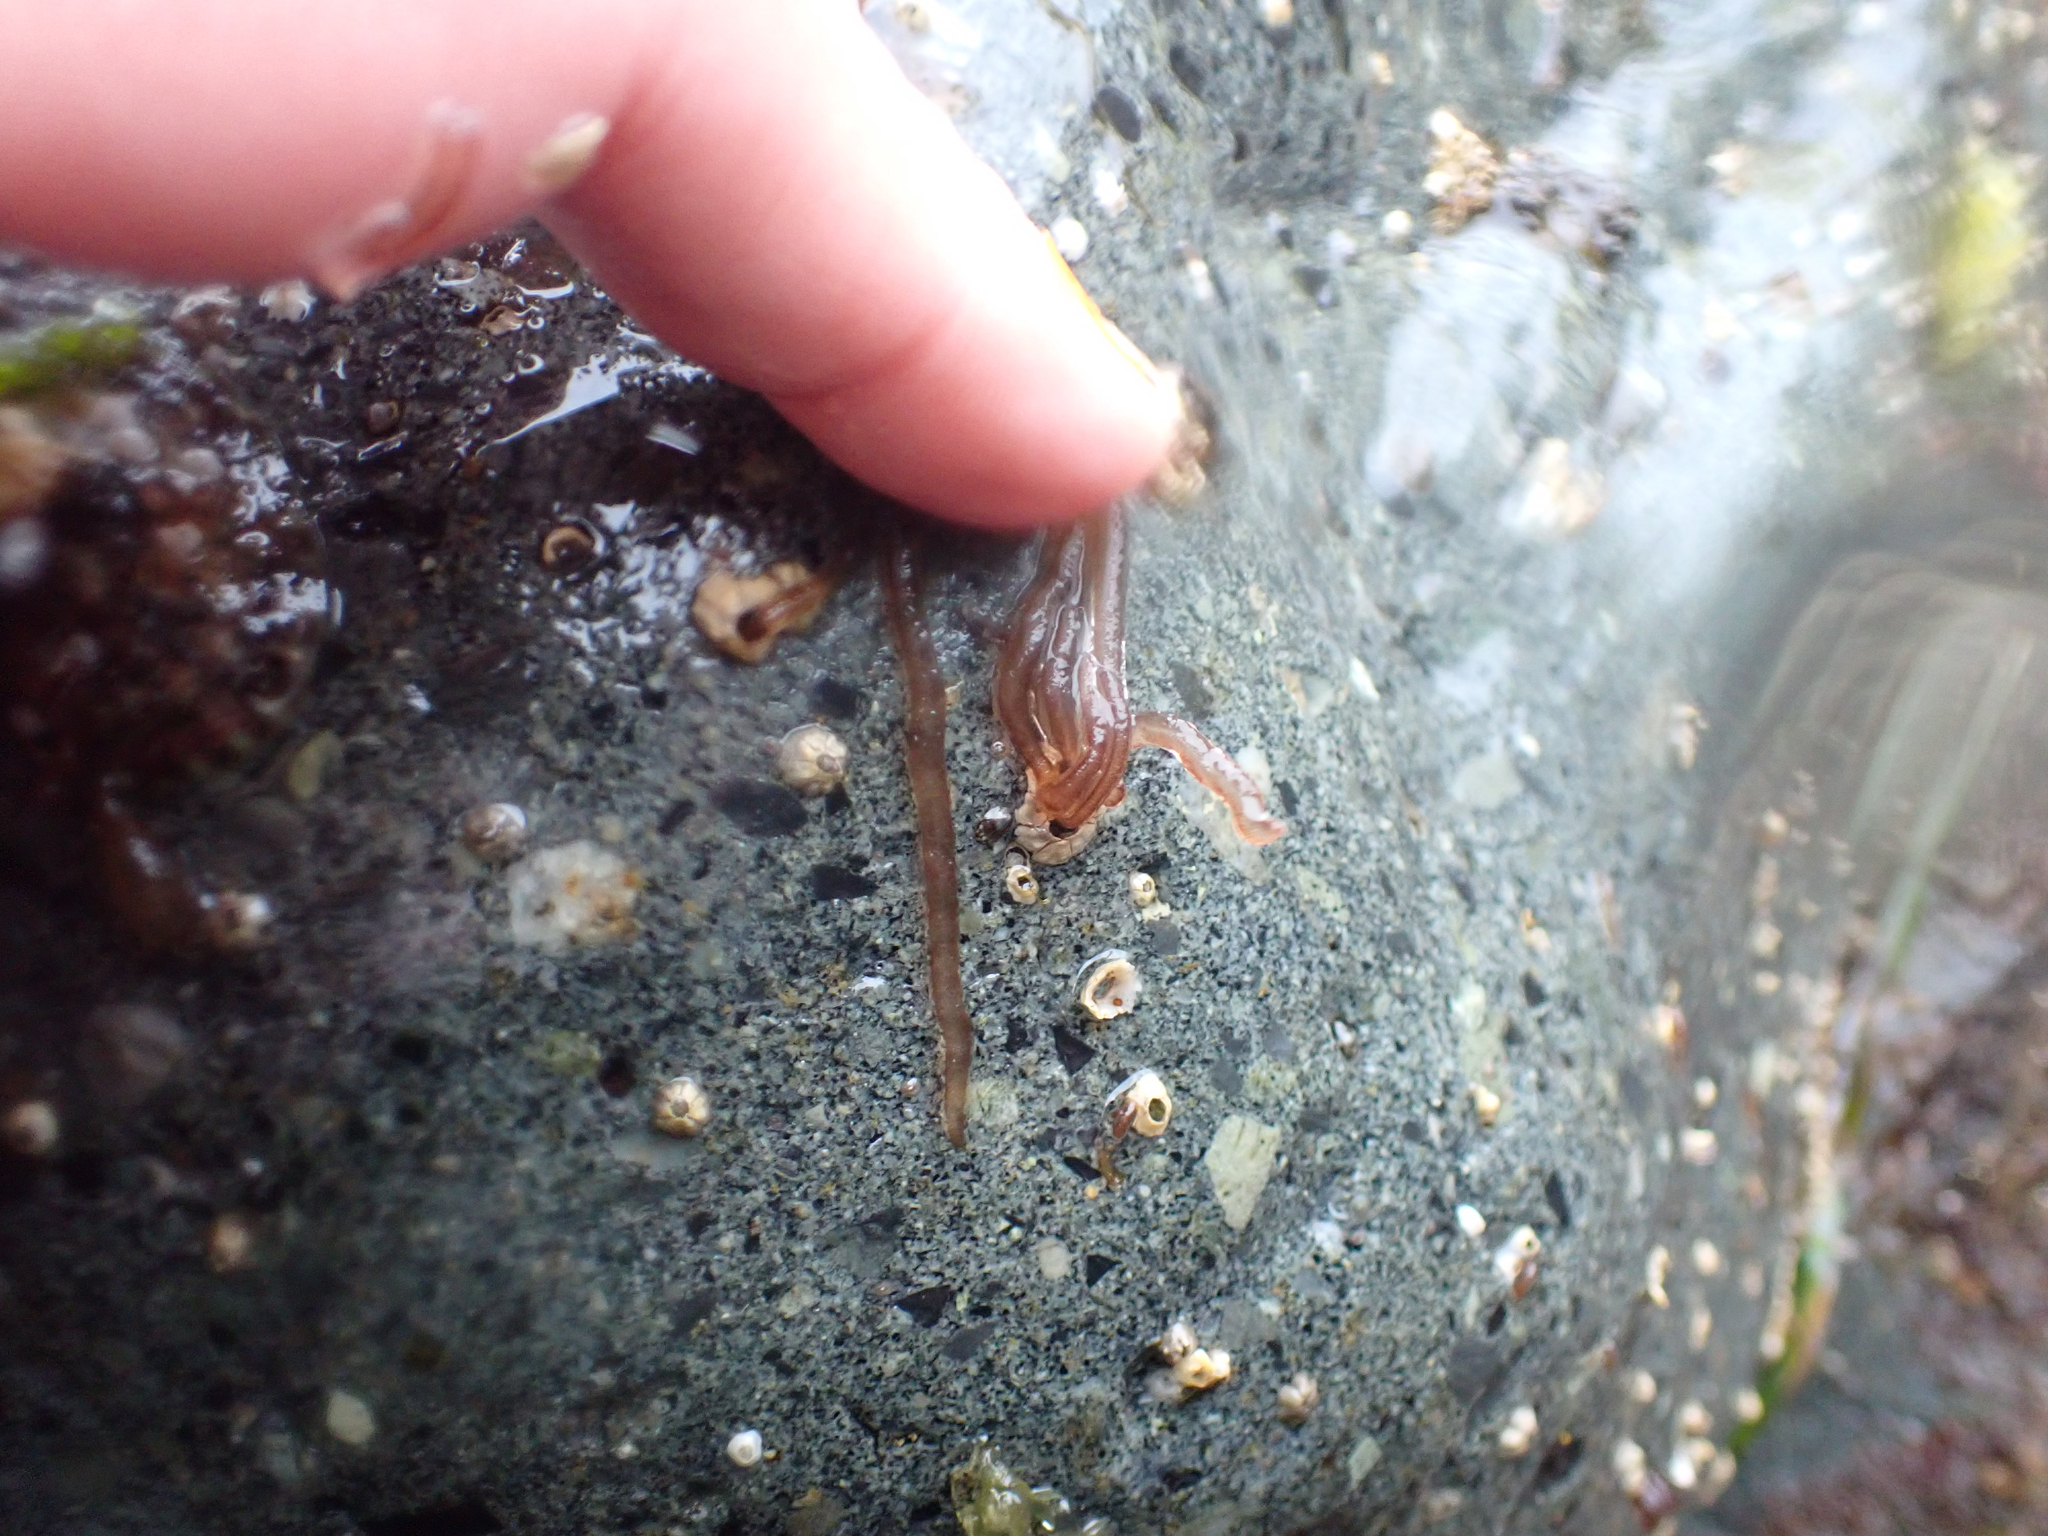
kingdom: Plantae
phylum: Rhodophyta
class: Florideophyceae
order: Nemaliales
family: Nemaliaceae
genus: Nemalion
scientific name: Nemalion elminthoides
